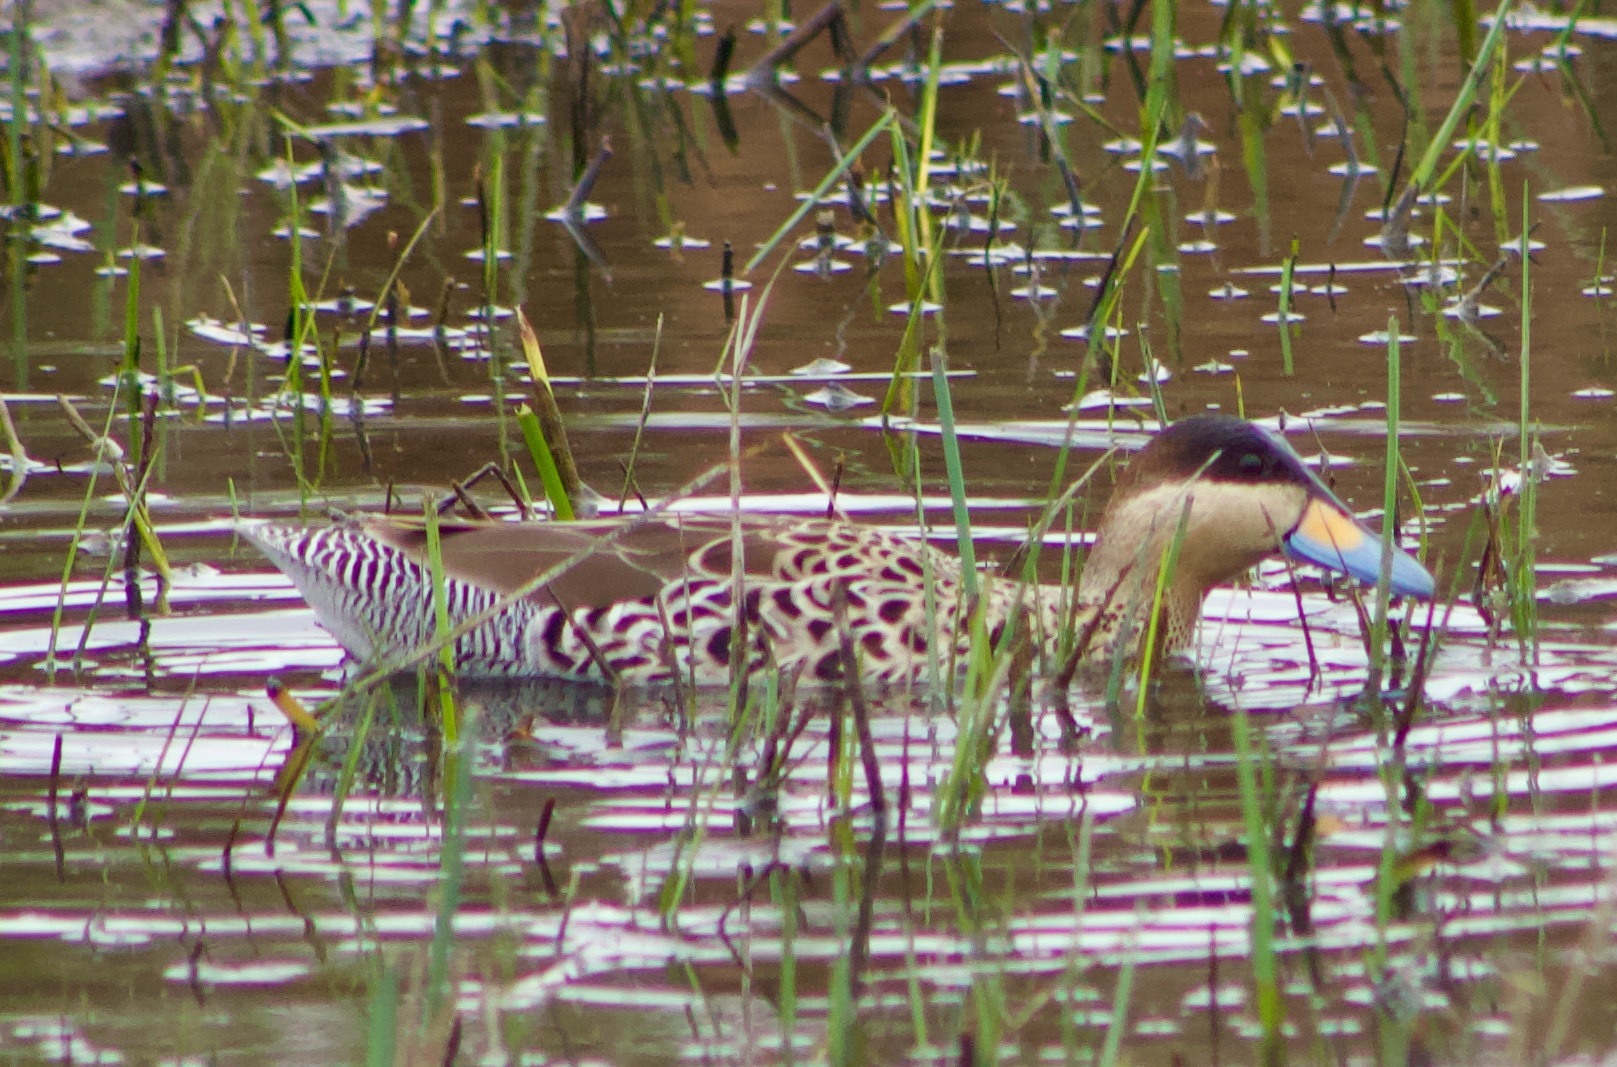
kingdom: Animalia
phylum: Chordata
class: Aves
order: Anseriformes
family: Anatidae
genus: Spatula
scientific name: Spatula versicolor
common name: Silver teal
